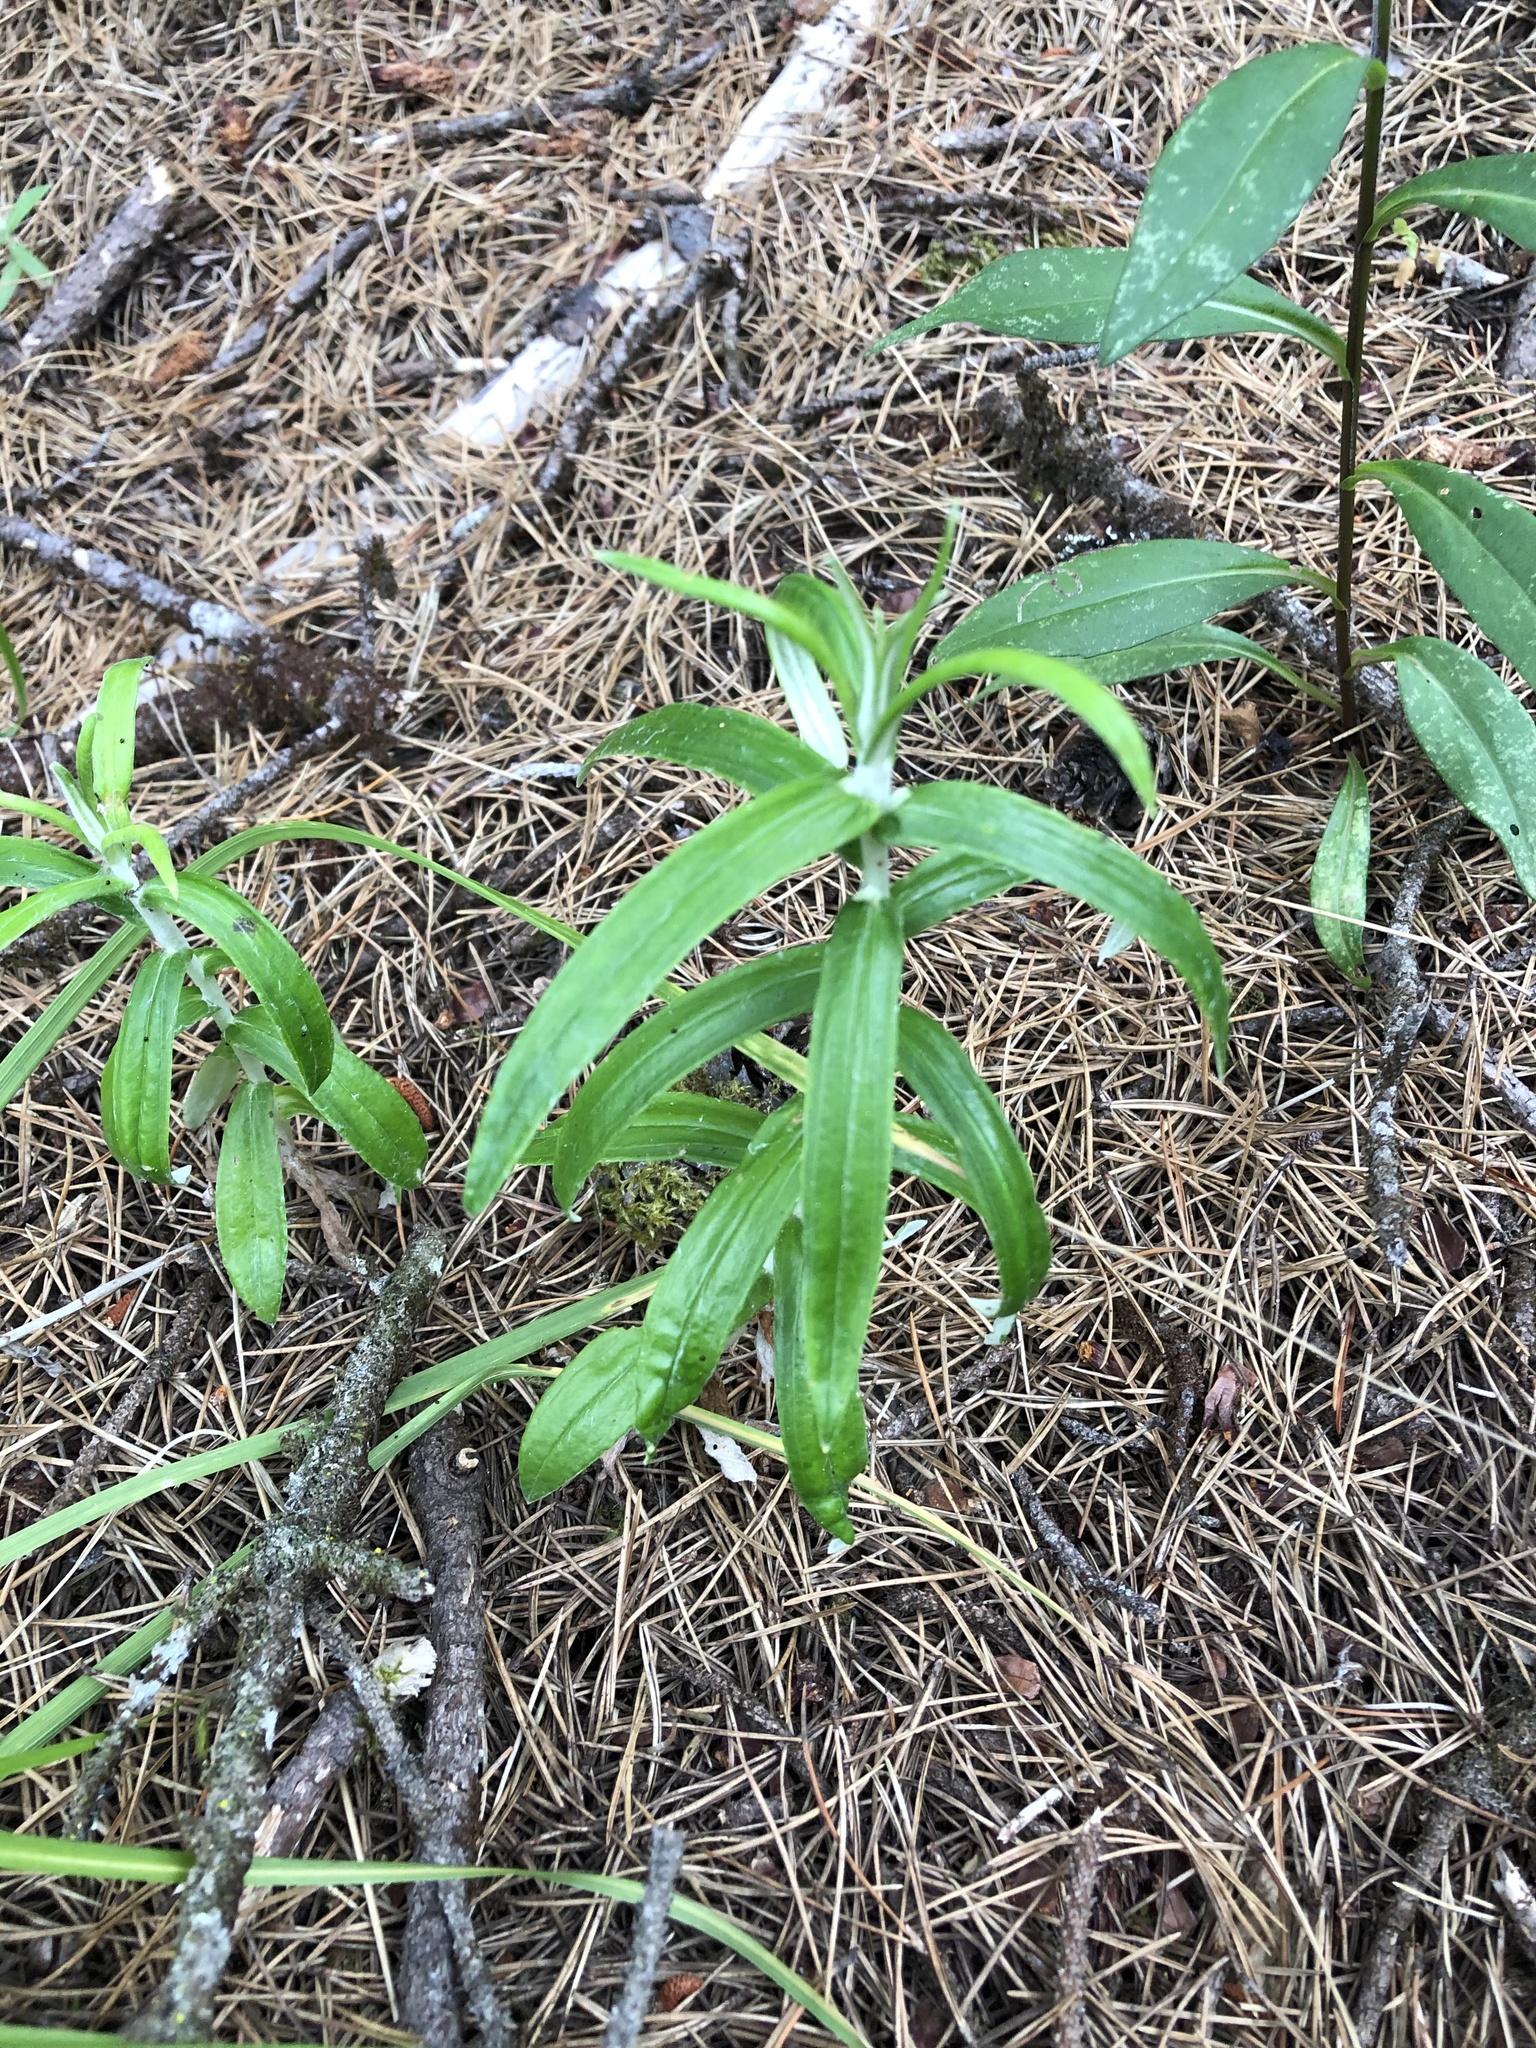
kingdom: Plantae
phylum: Tracheophyta
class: Magnoliopsida
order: Asterales
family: Asteraceae
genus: Anaphalis
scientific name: Anaphalis margaritacea
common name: Pearly everlasting
